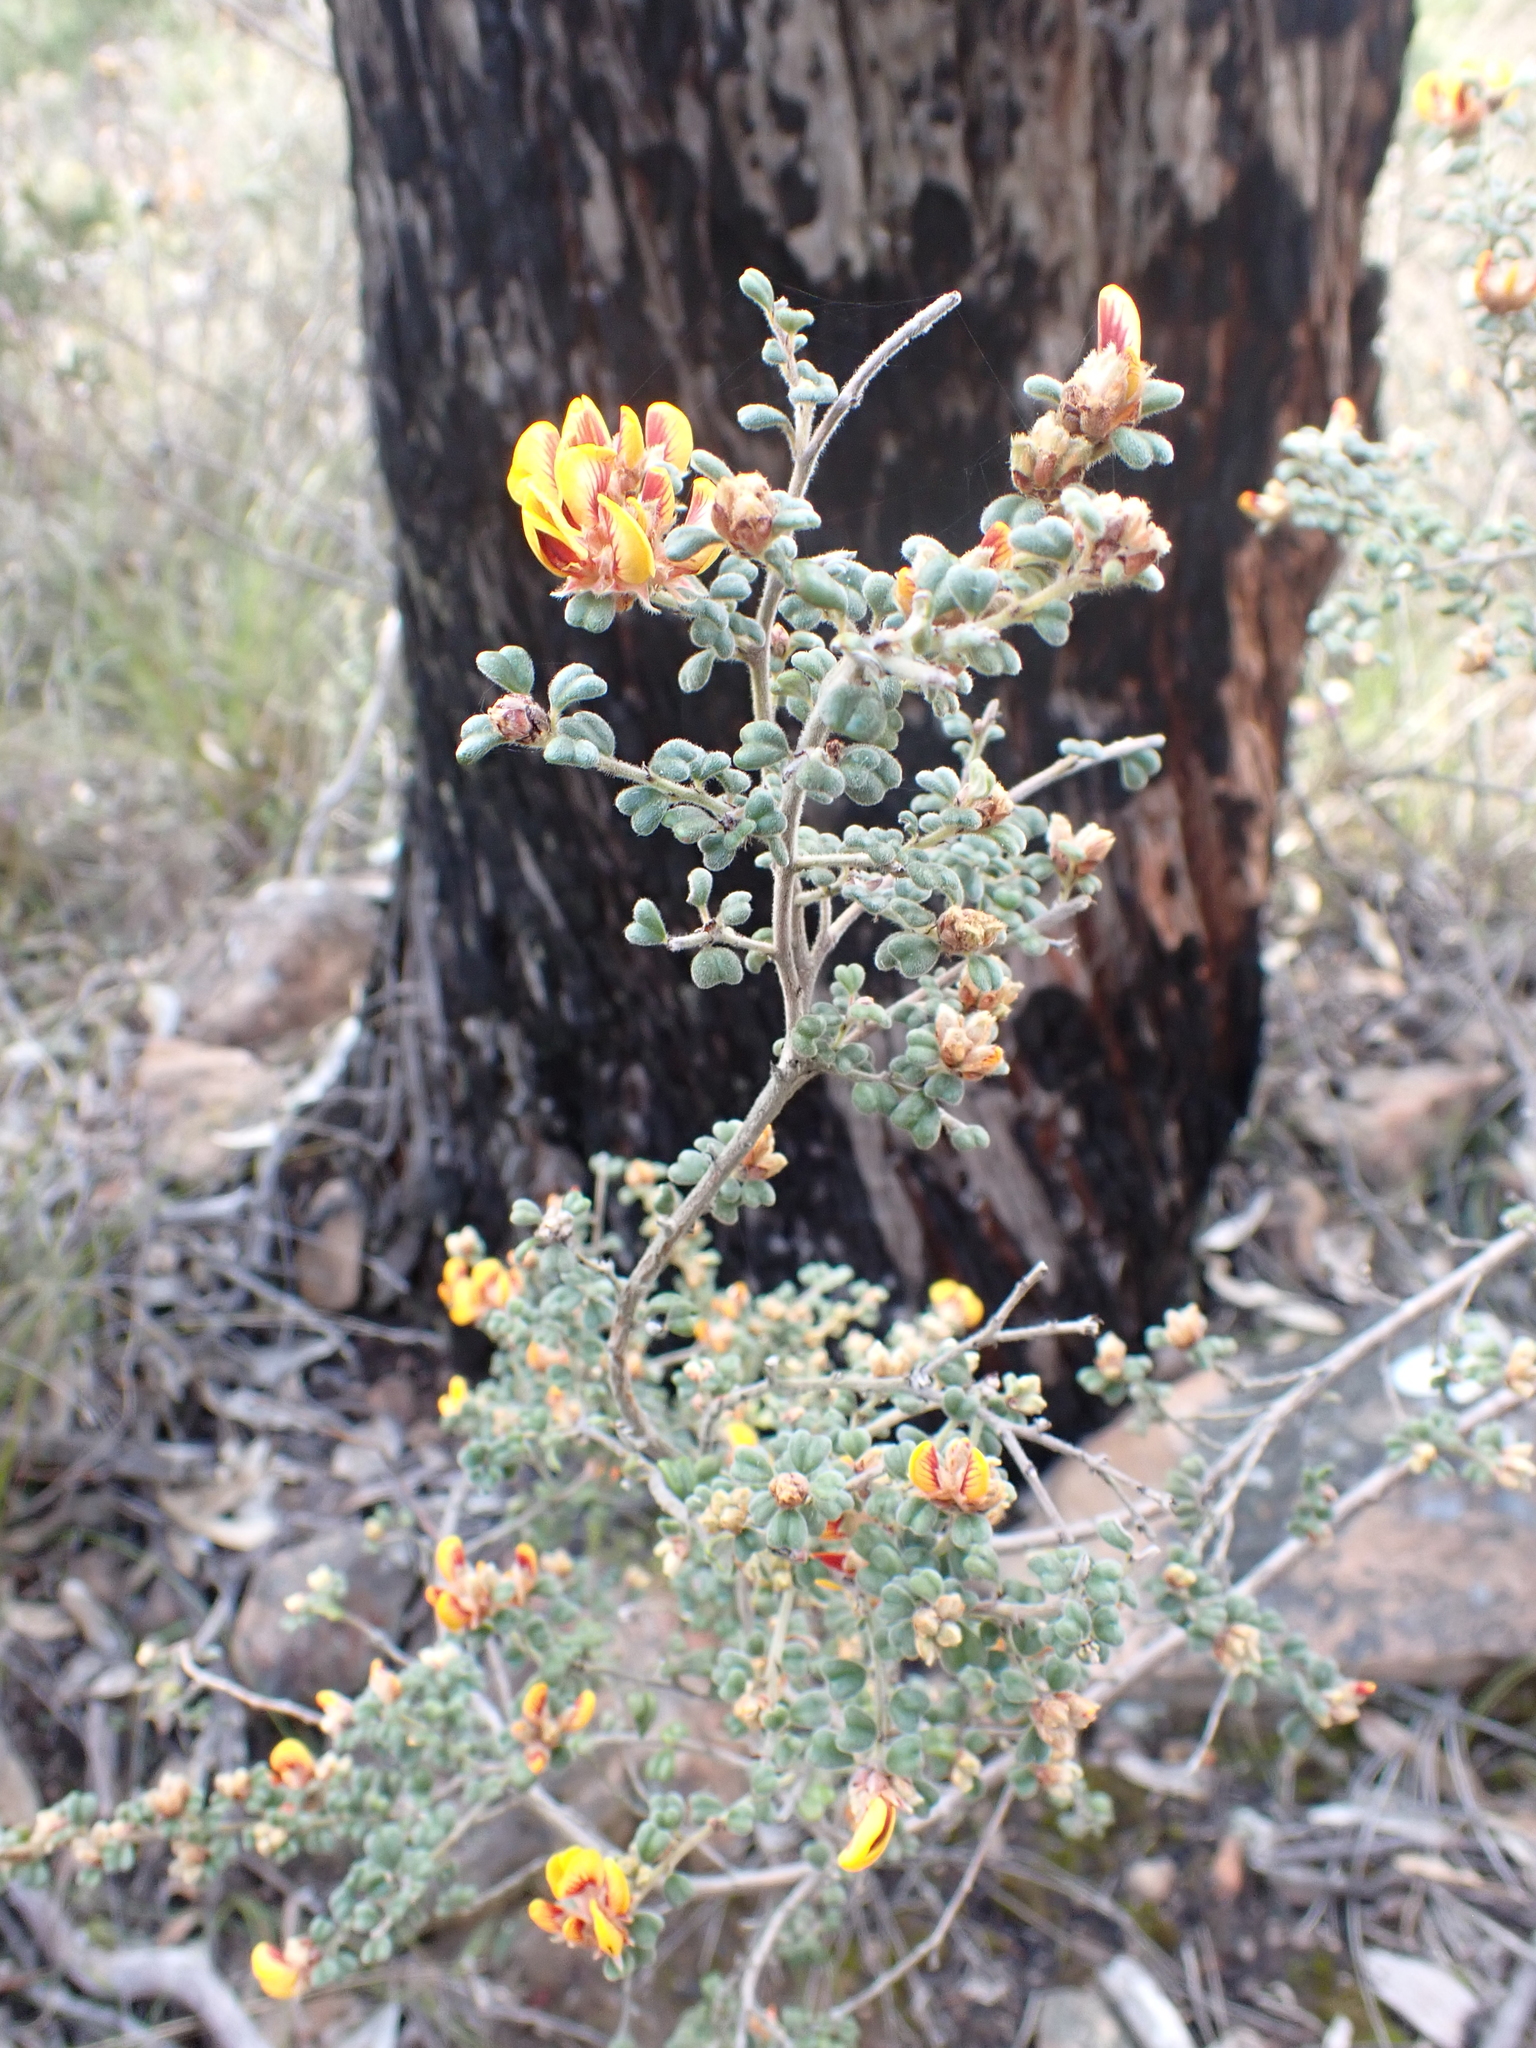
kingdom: Plantae
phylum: Tracheophyta
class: Magnoliopsida
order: Fabales
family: Fabaceae
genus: Pultenaea
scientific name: Pultenaea scabra
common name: Rough bush-pea
